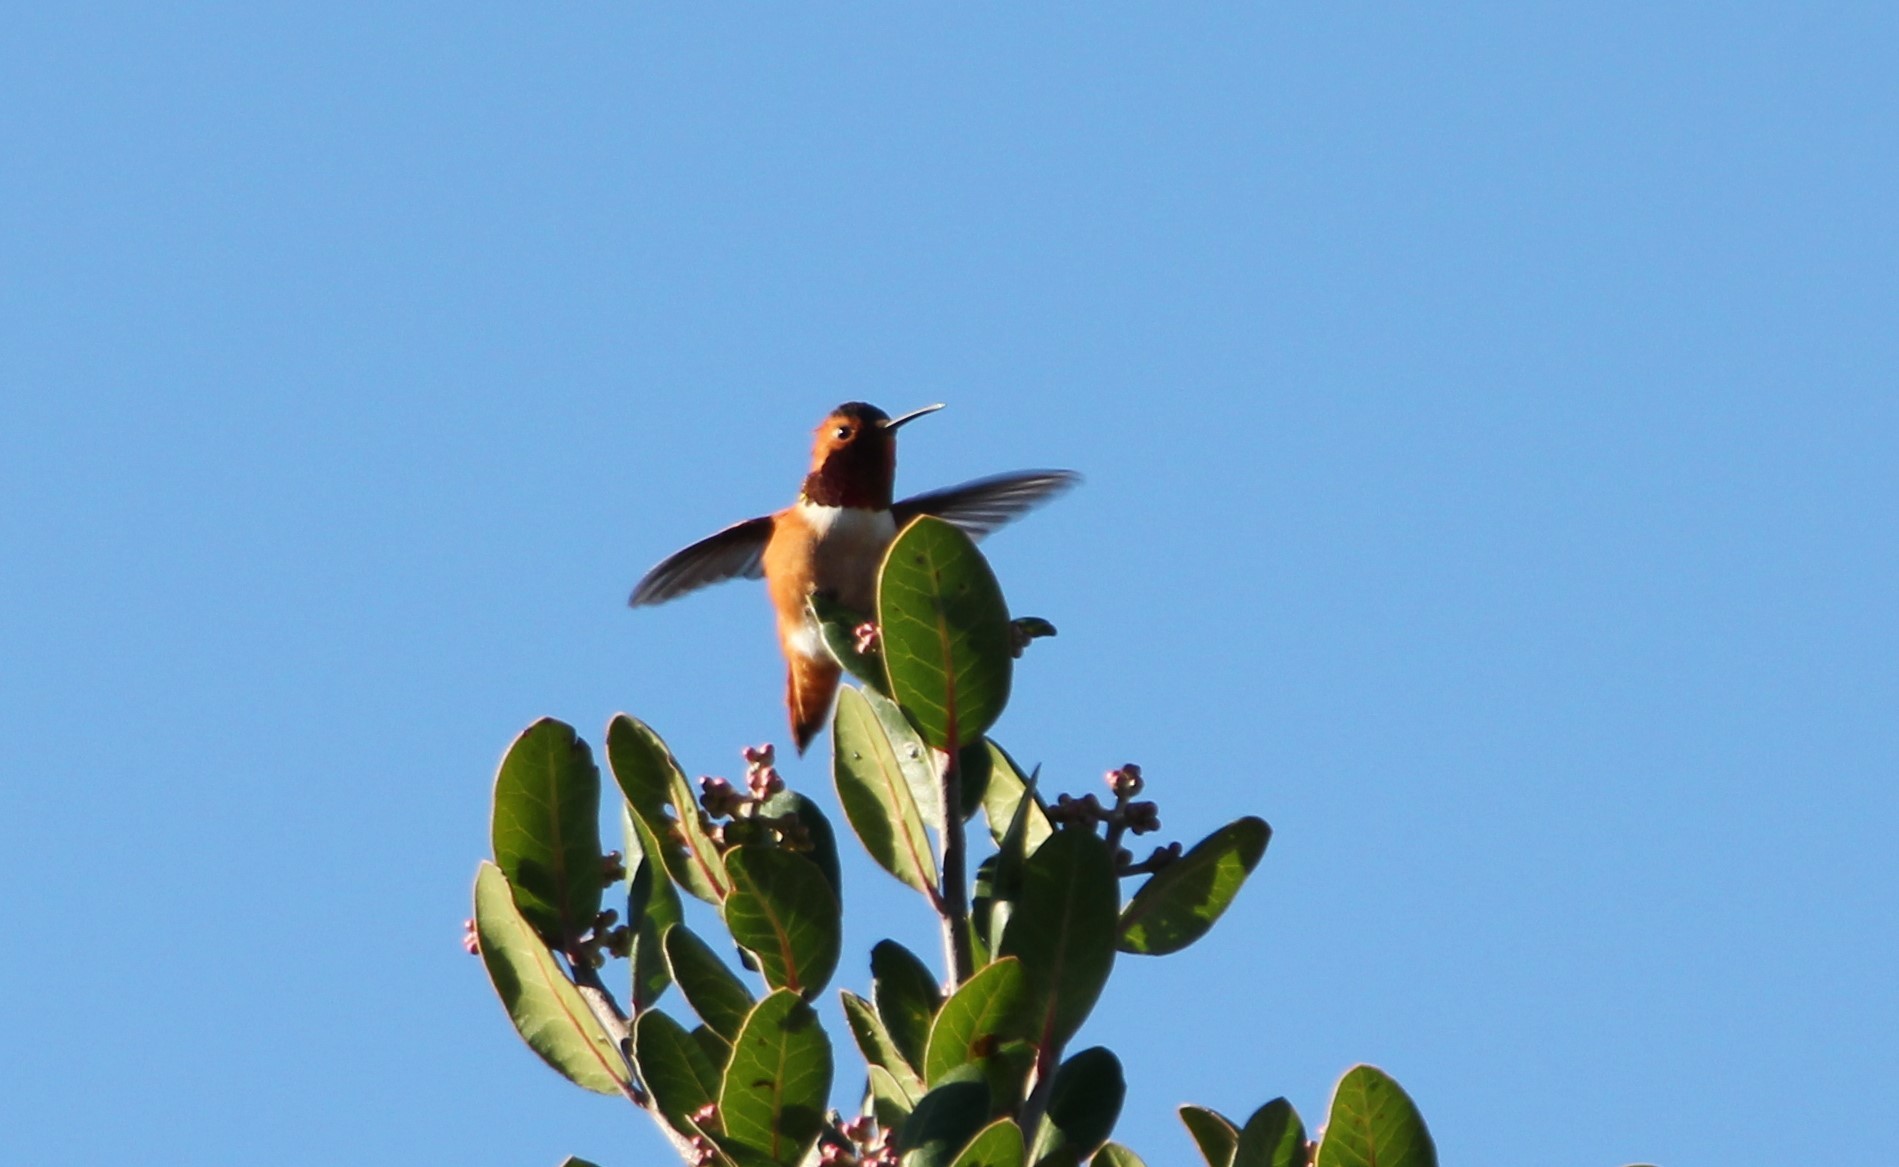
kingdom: Animalia
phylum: Chordata
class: Aves
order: Apodiformes
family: Trochilidae
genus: Selasphorus
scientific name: Selasphorus sasin
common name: Allen's hummingbird
